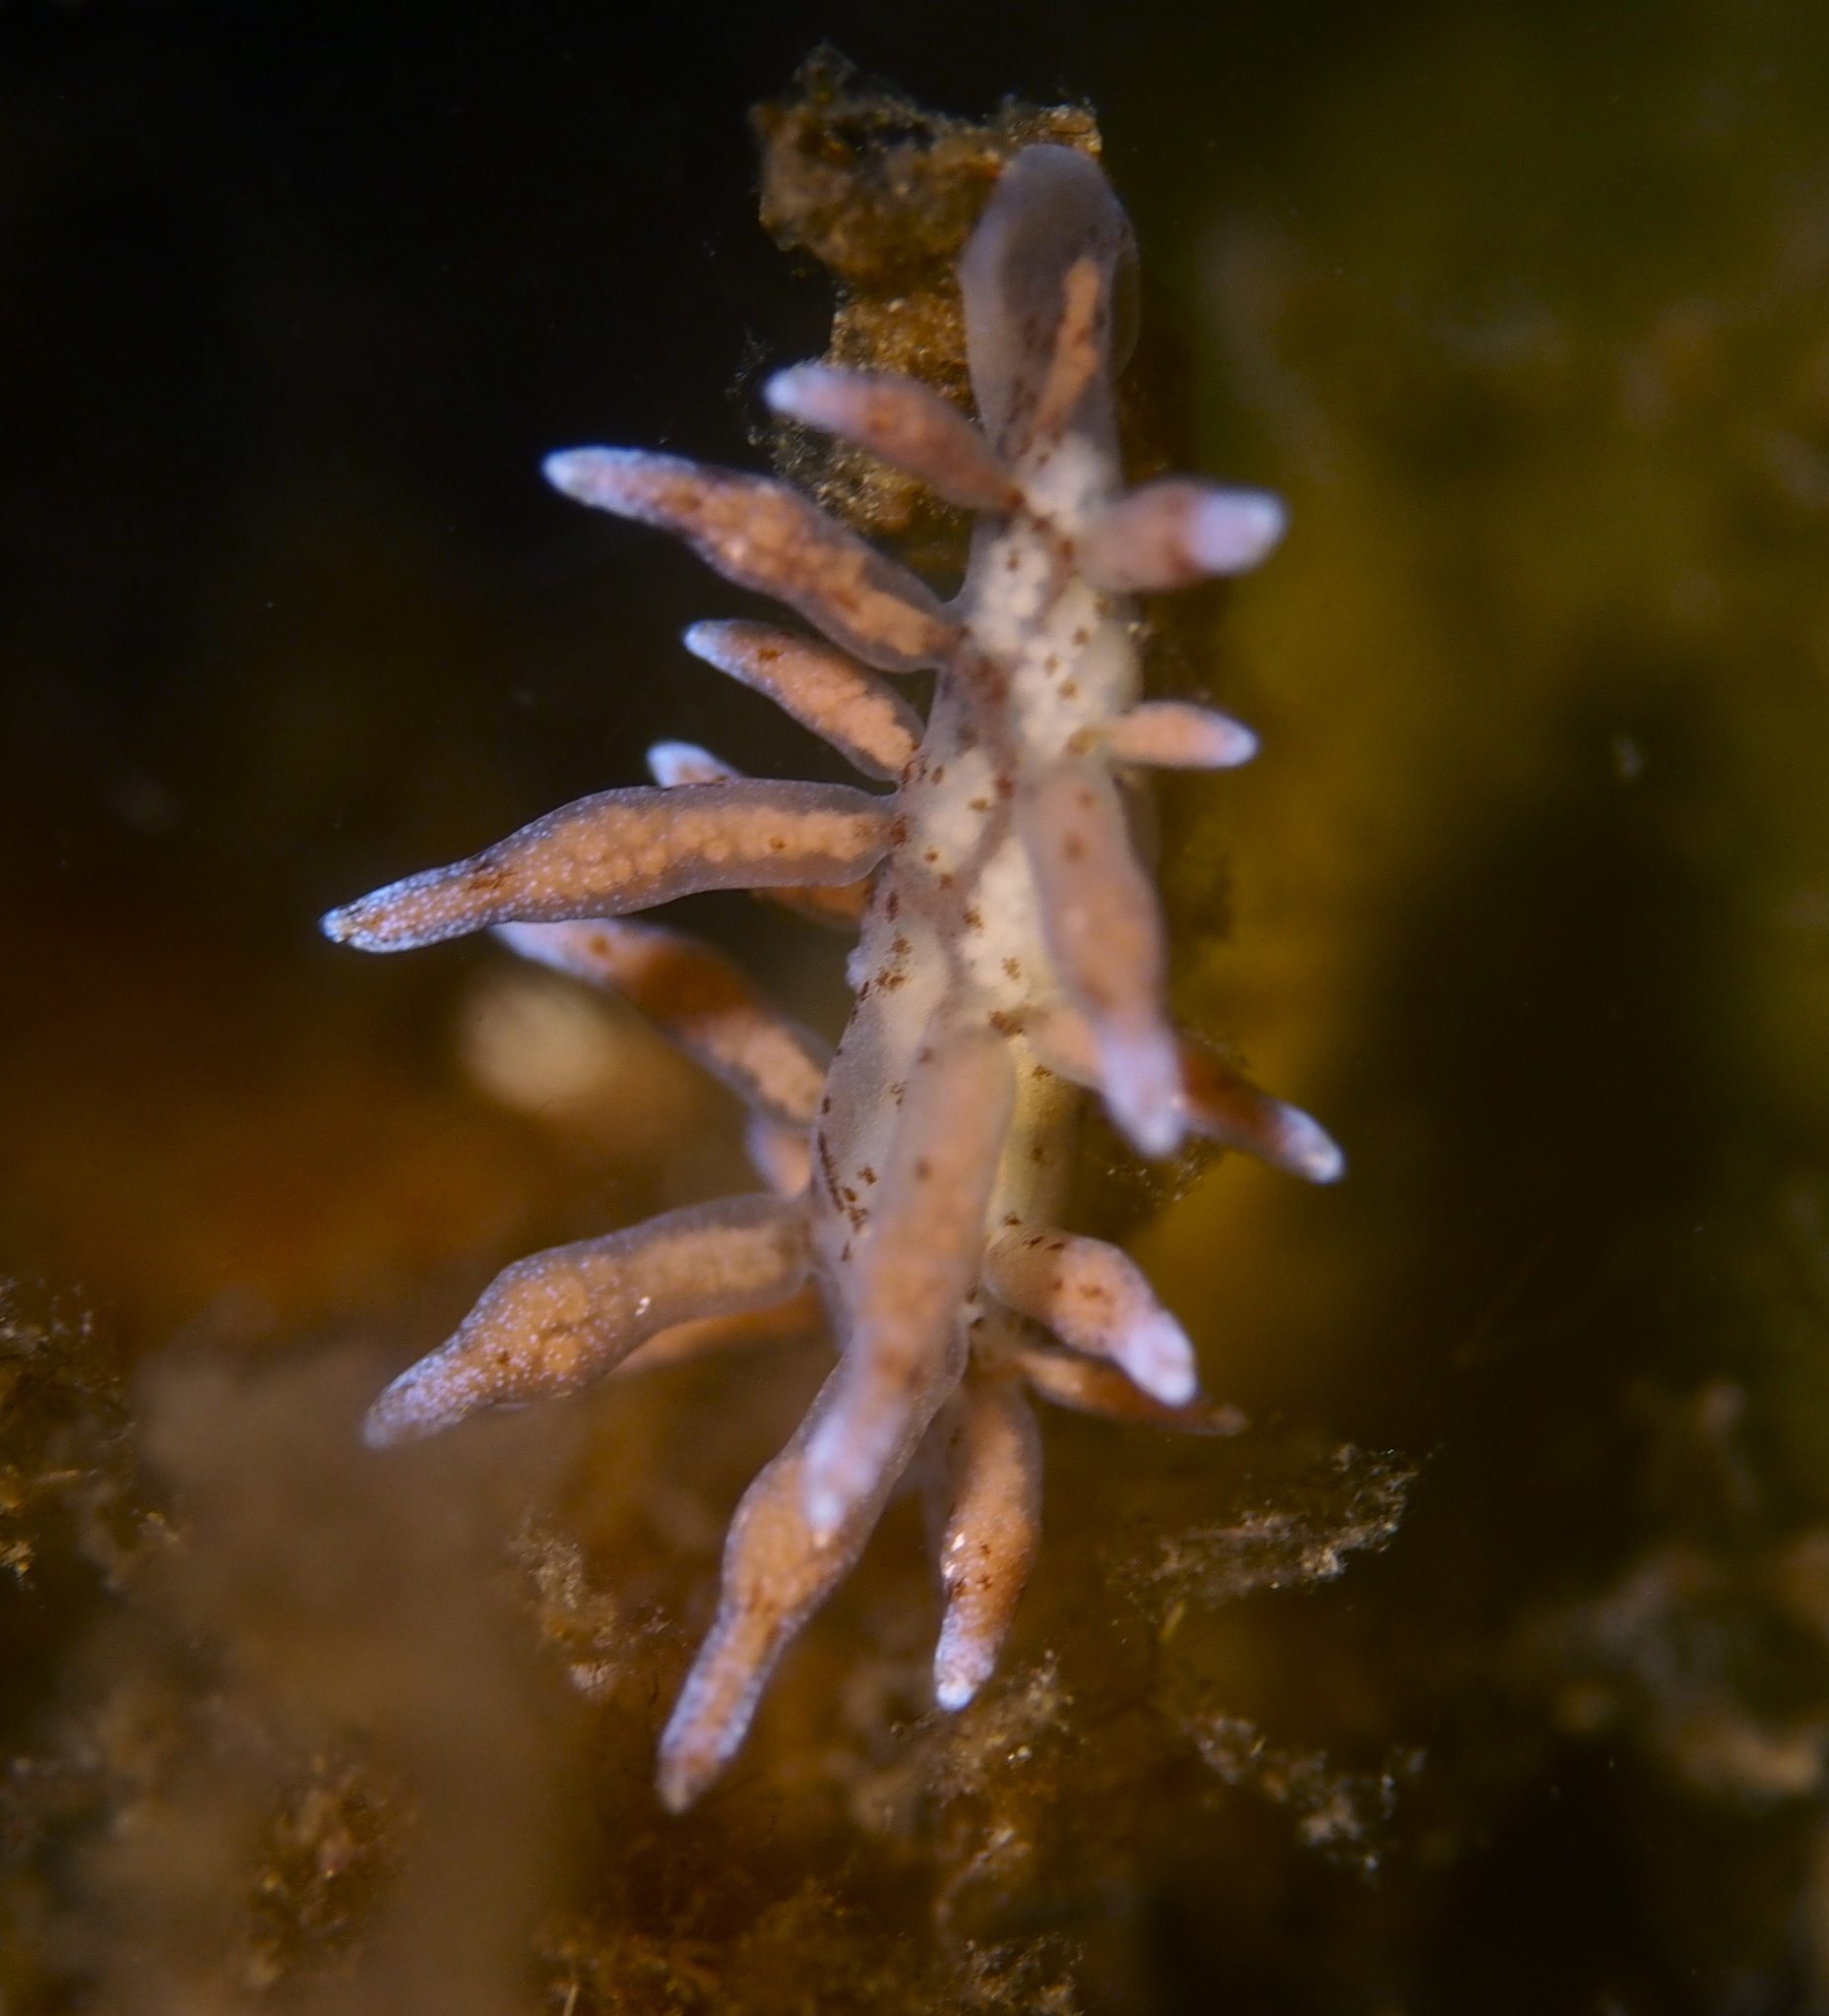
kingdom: Animalia
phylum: Mollusca
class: Gastropoda
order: Nudibranchia
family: Eubranchidae
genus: Eubranchus
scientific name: Eubranchus rupium
